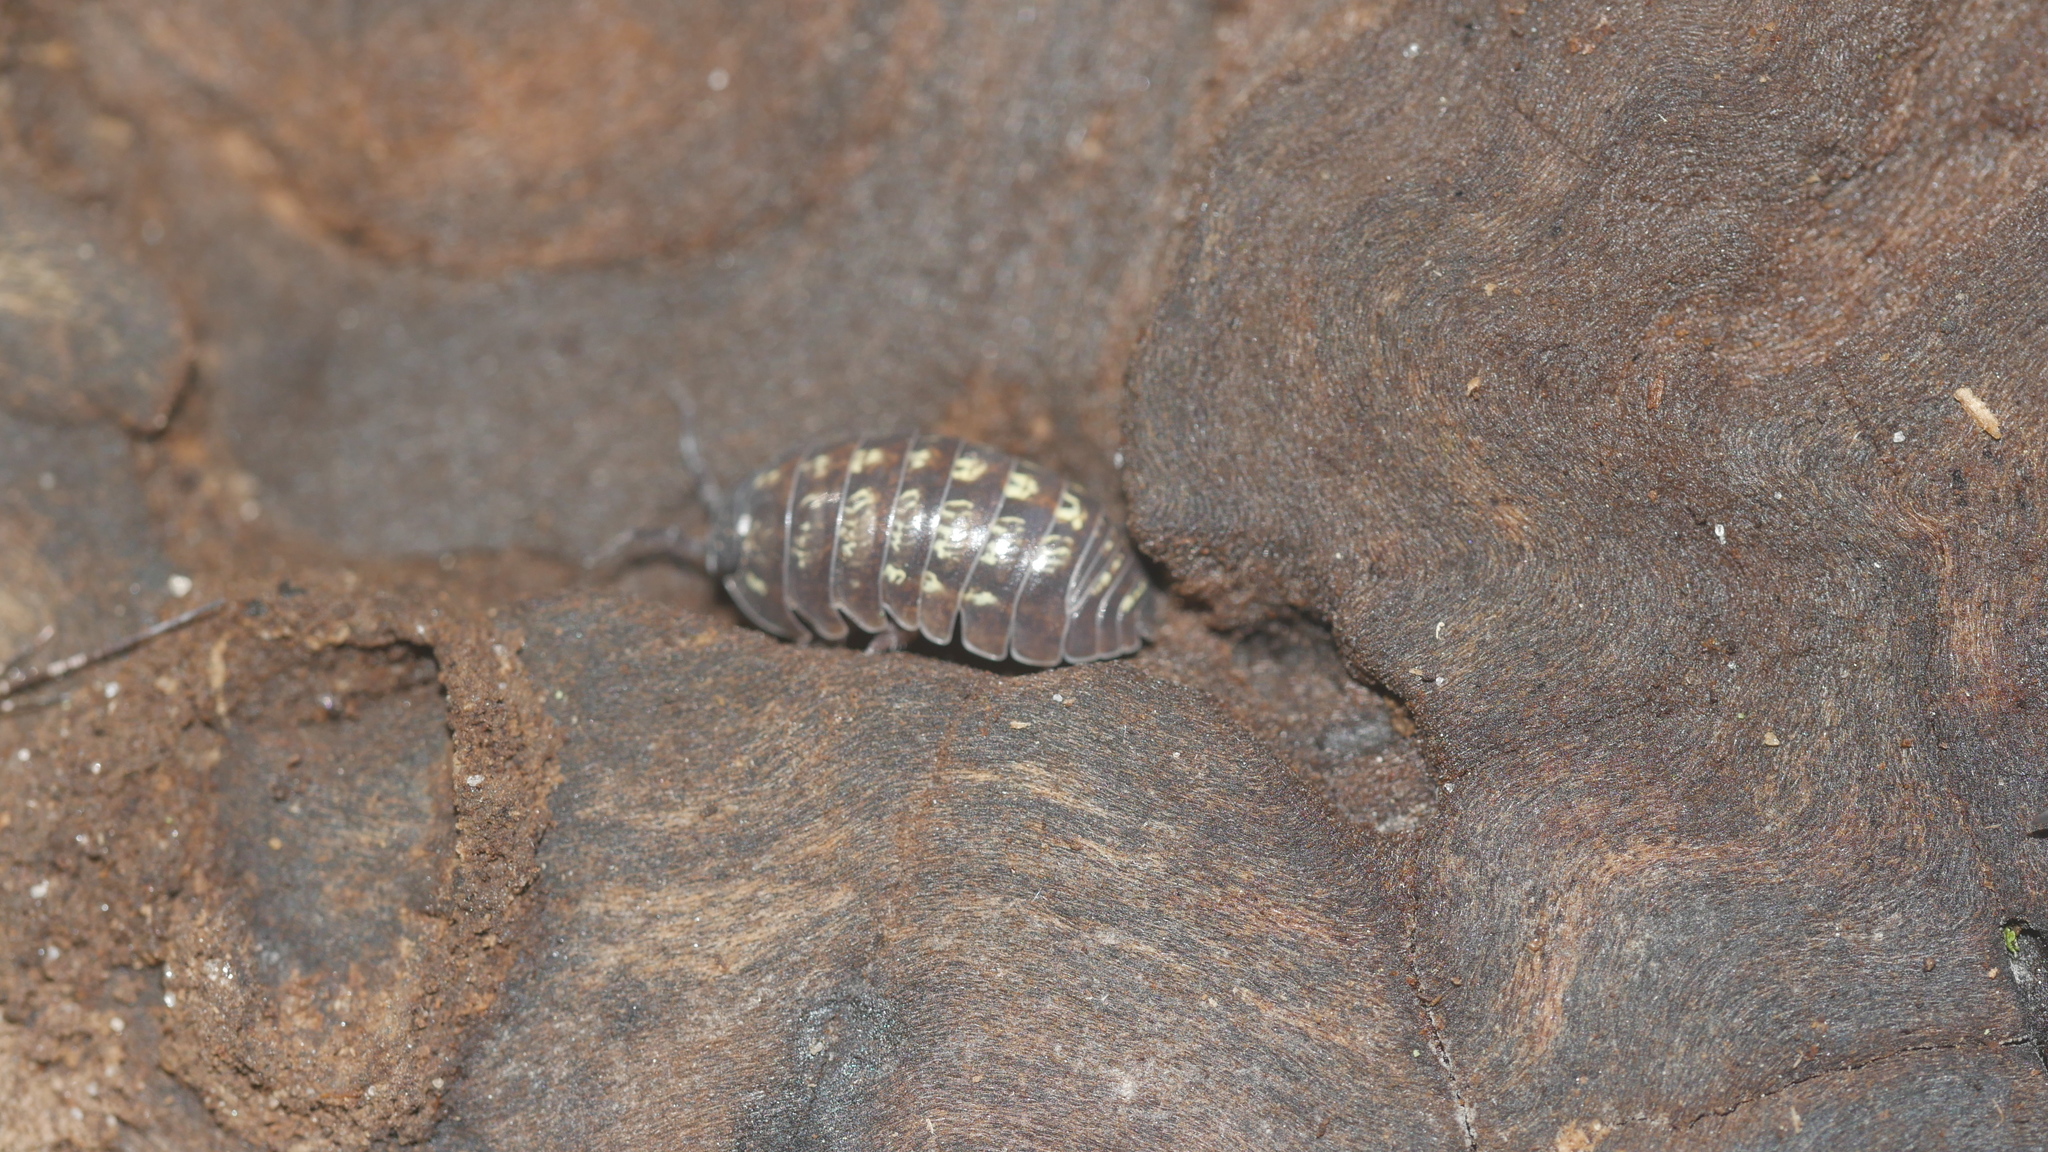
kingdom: Animalia
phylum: Arthropoda
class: Malacostraca
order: Isopoda
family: Armadillidiidae
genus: Armadillidium
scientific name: Armadillidium vulgare
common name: Common pill woodlouse
